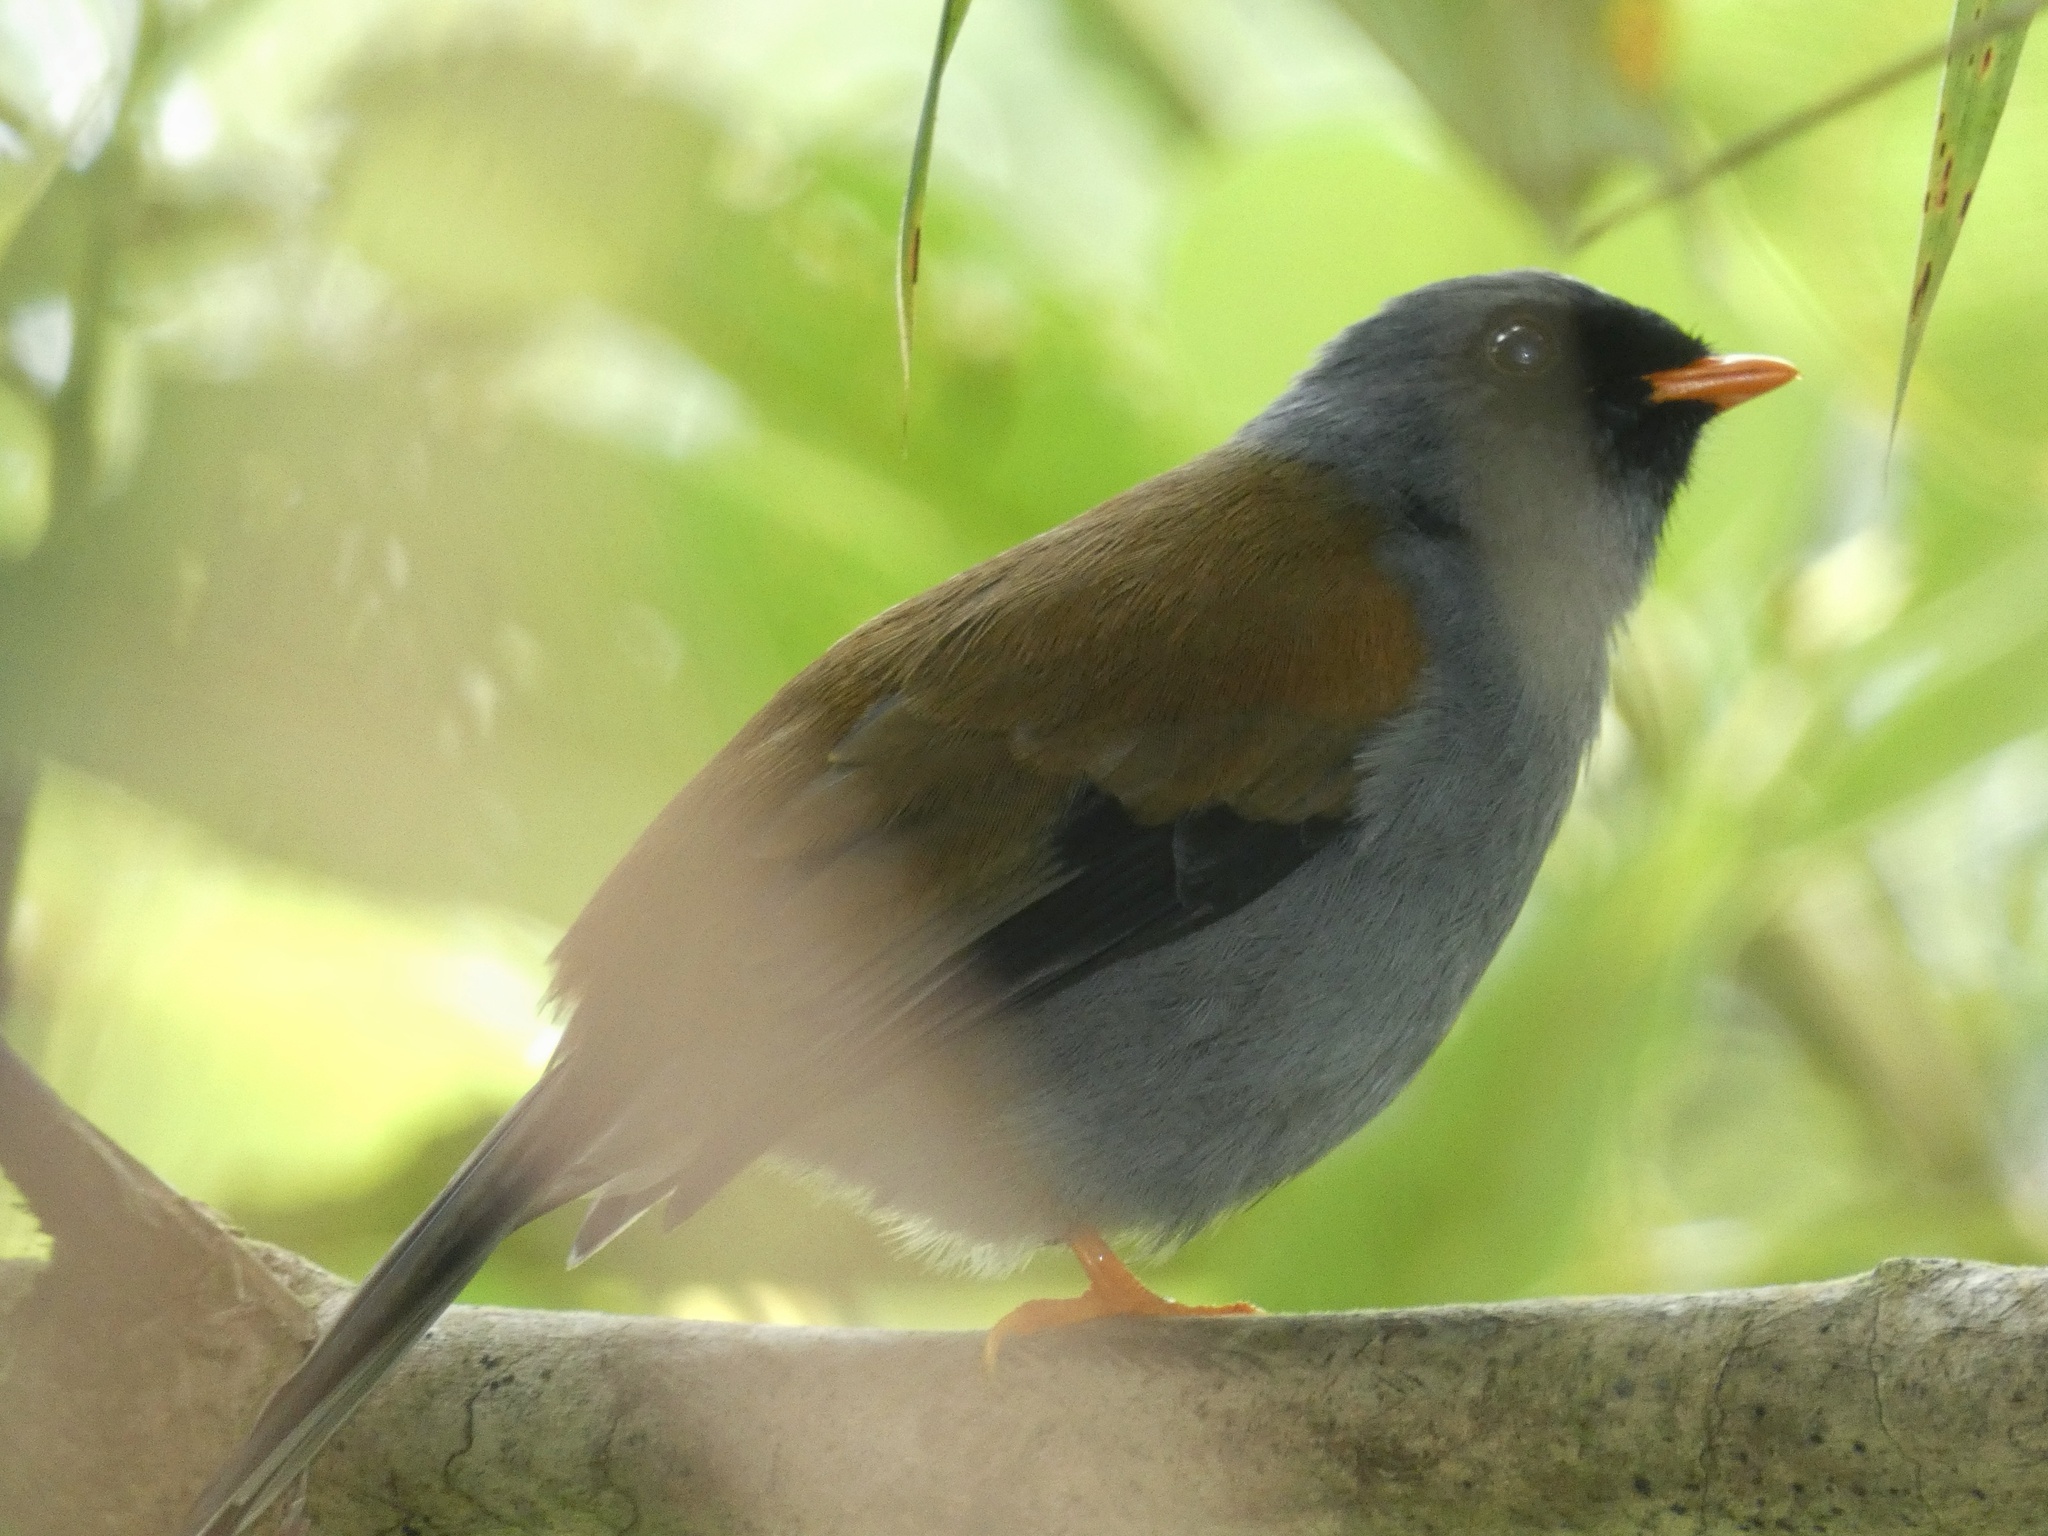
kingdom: Animalia
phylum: Chordata
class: Aves
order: Passeriformes
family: Turdidae
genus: Myadestes
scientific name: Myadestes coloratus
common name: Varied solitaire
